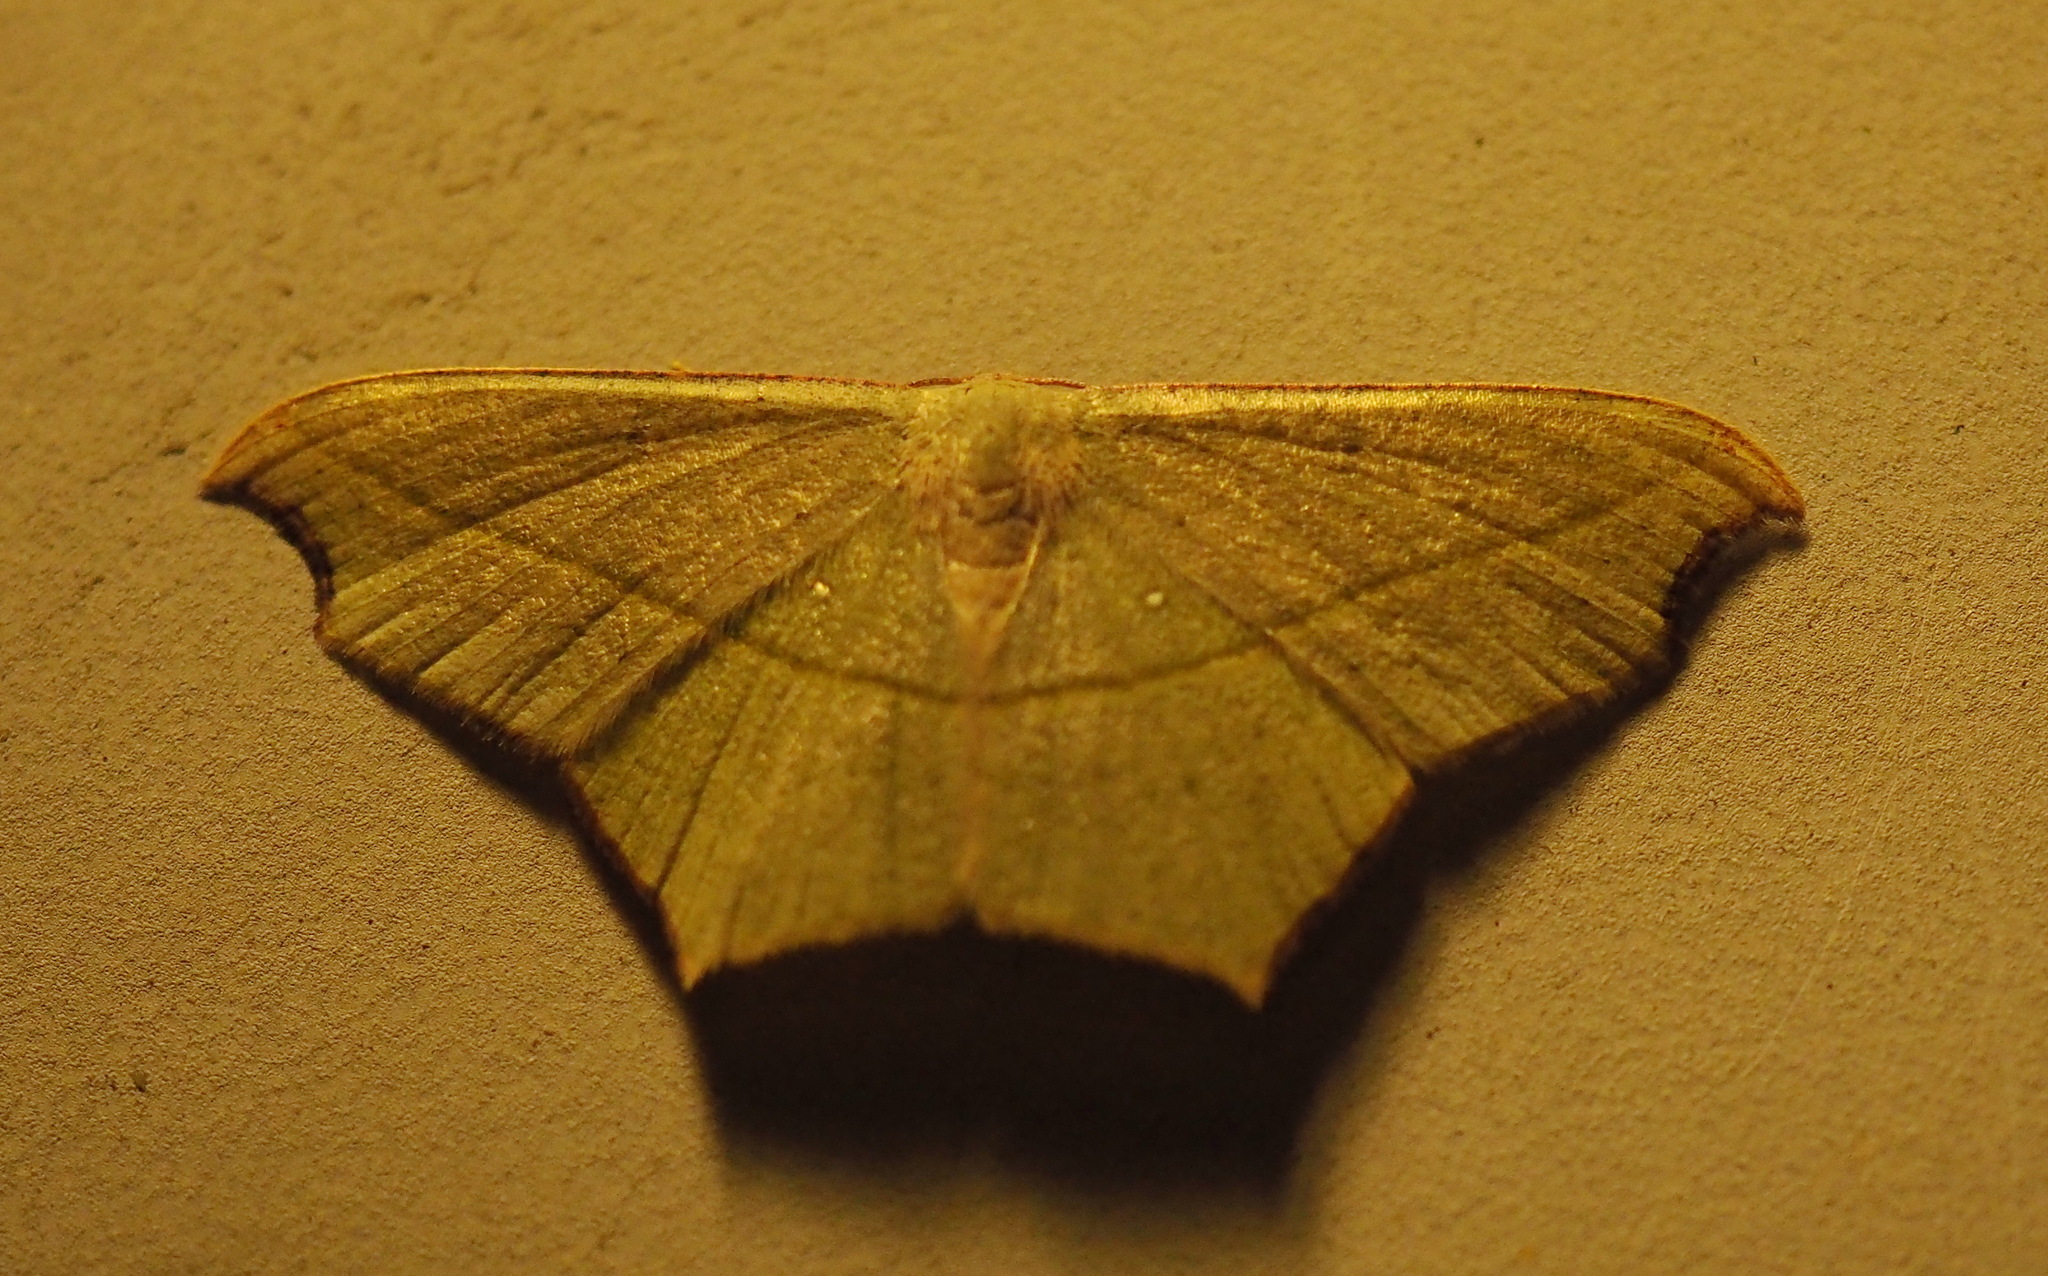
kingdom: Animalia
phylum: Arthropoda
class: Insecta
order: Lepidoptera
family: Geometridae
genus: Traminda
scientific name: Traminda aventiaria
